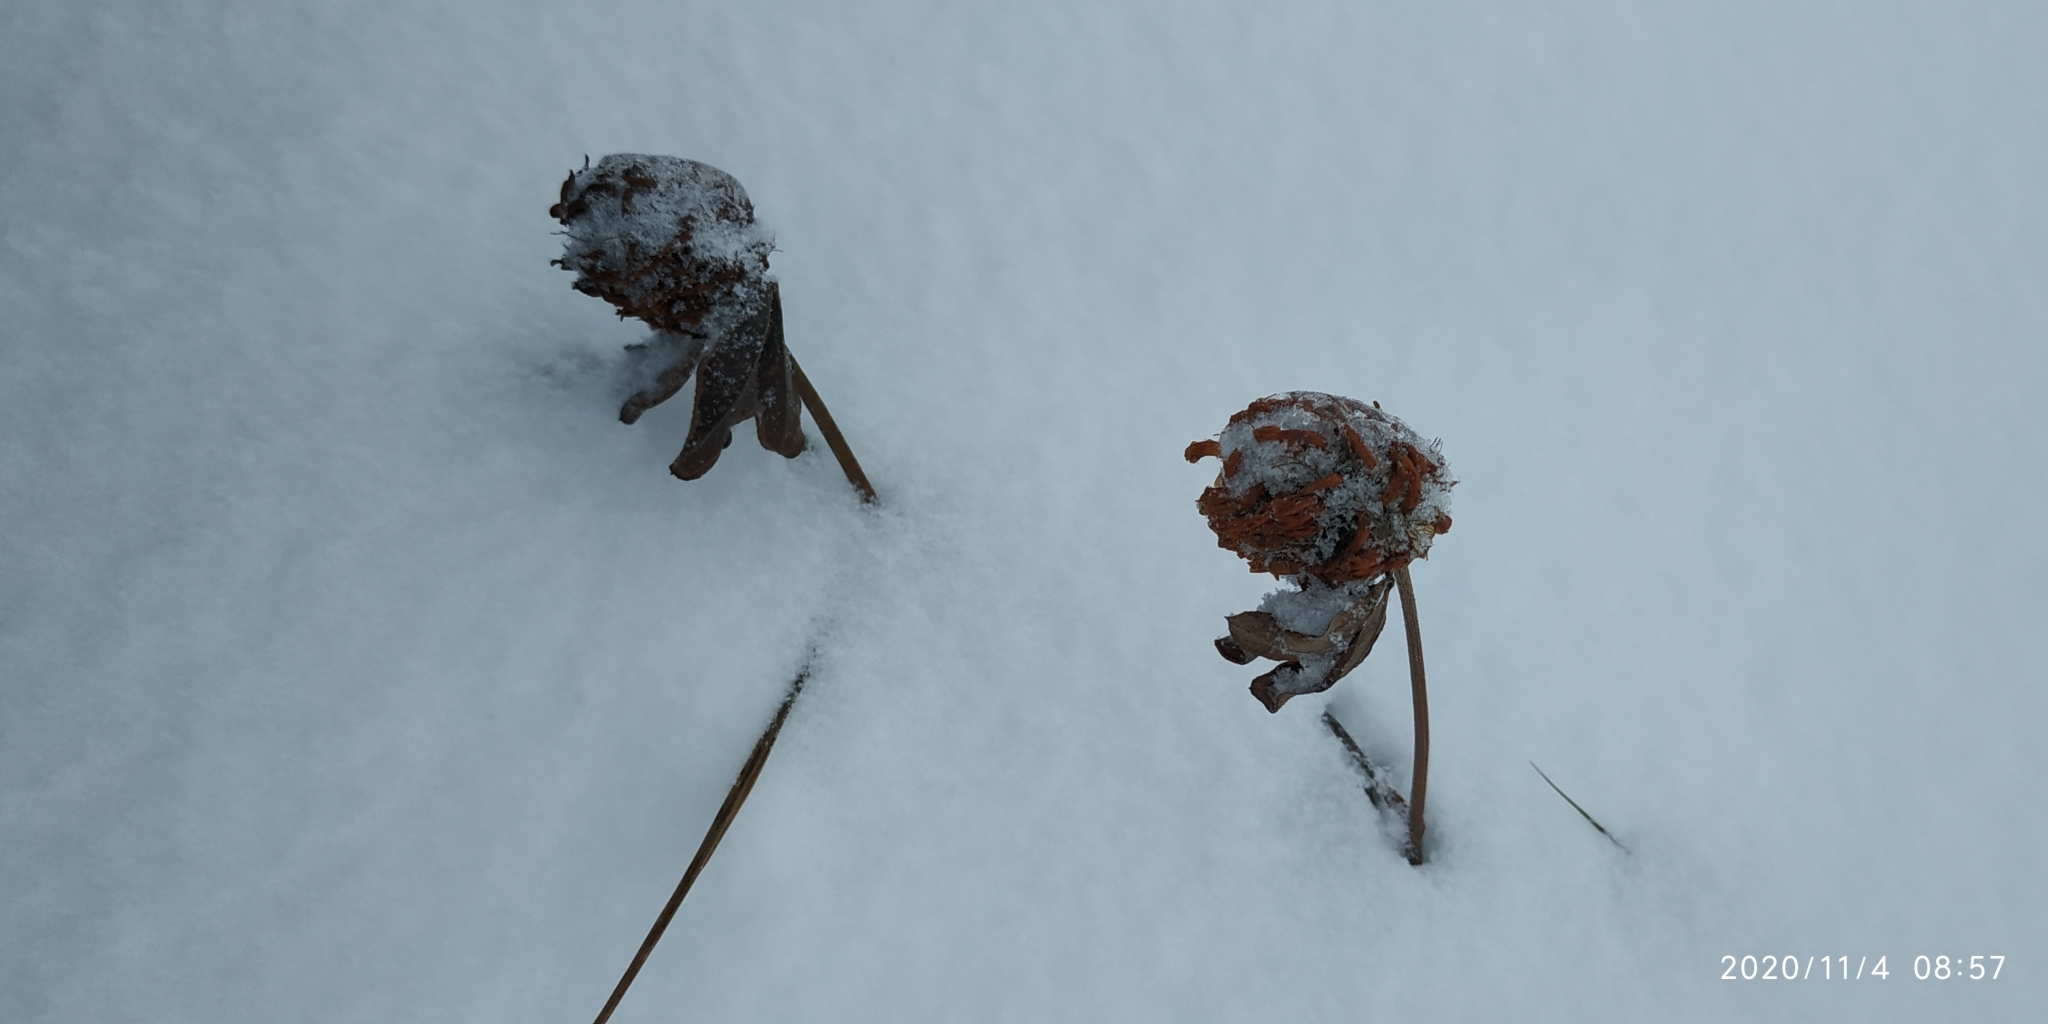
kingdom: Plantae
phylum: Tracheophyta
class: Magnoliopsida
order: Fabales
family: Fabaceae
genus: Trifolium
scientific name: Trifolium pratense
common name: Red clover
